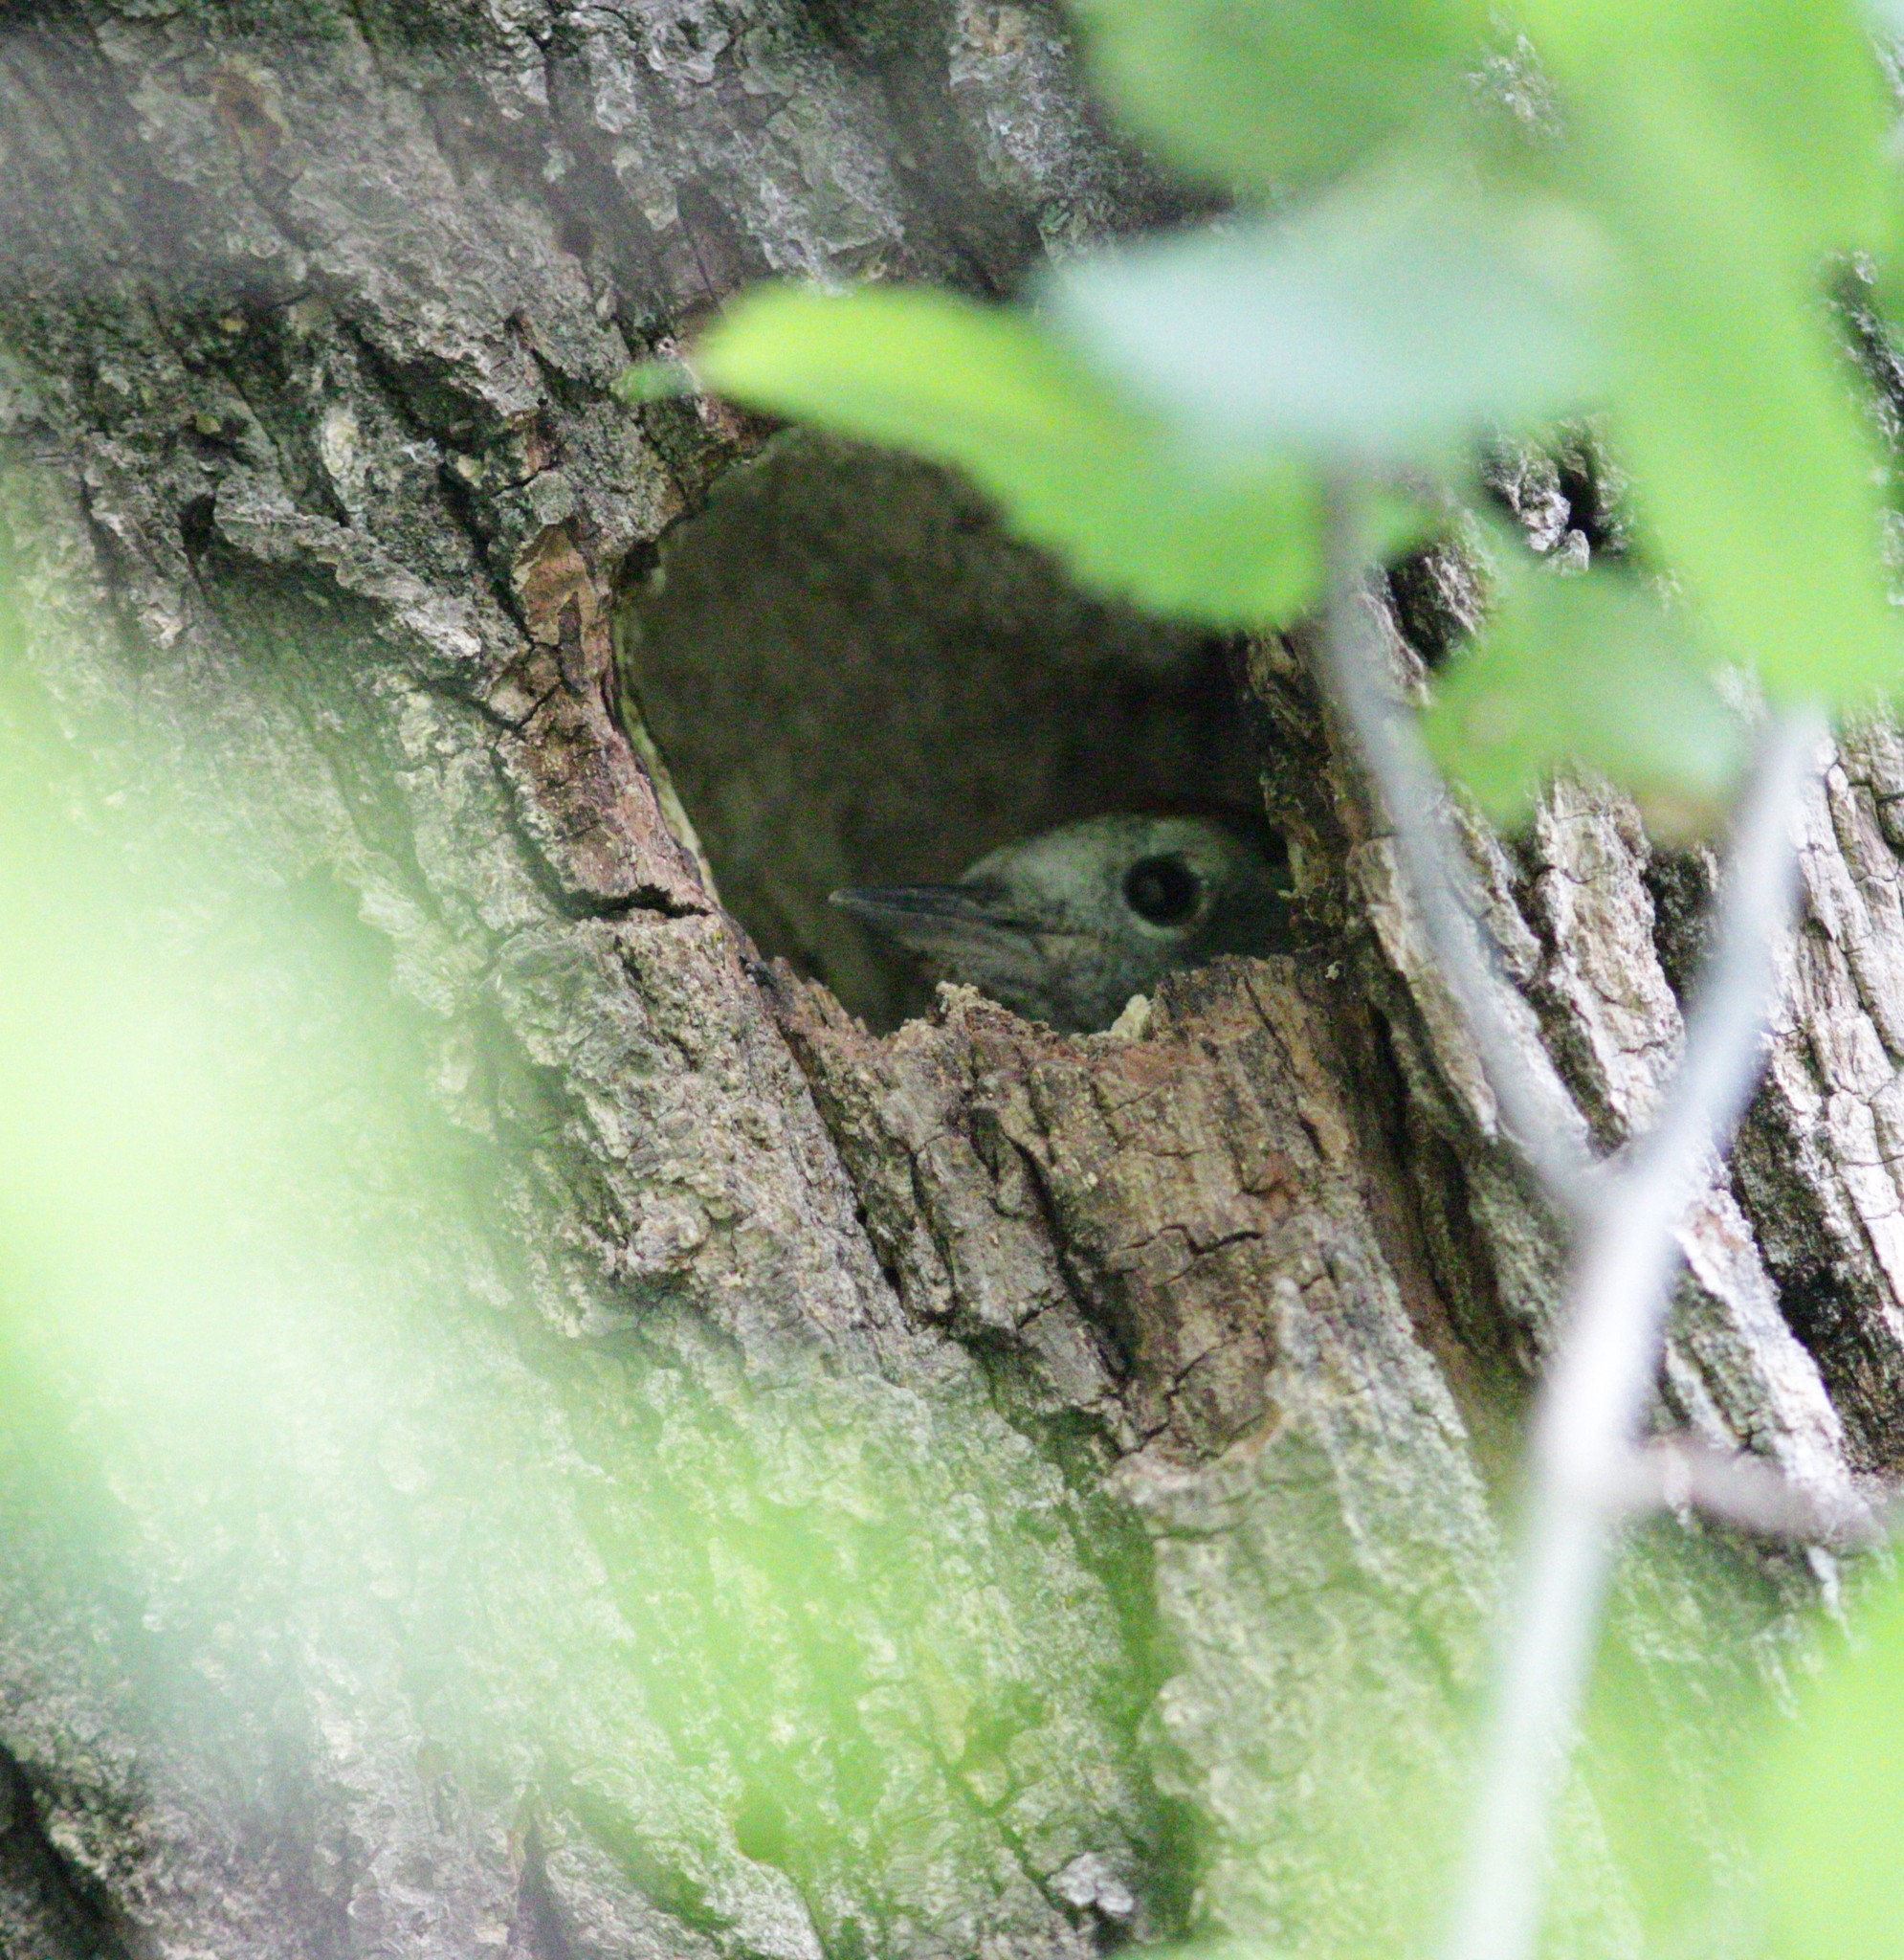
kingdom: Animalia
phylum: Chordata
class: Aves
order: Piciformes
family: Picidae
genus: Dendrocoptes
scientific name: Dendrocoptes medius
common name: Middle spotted woodpecker
